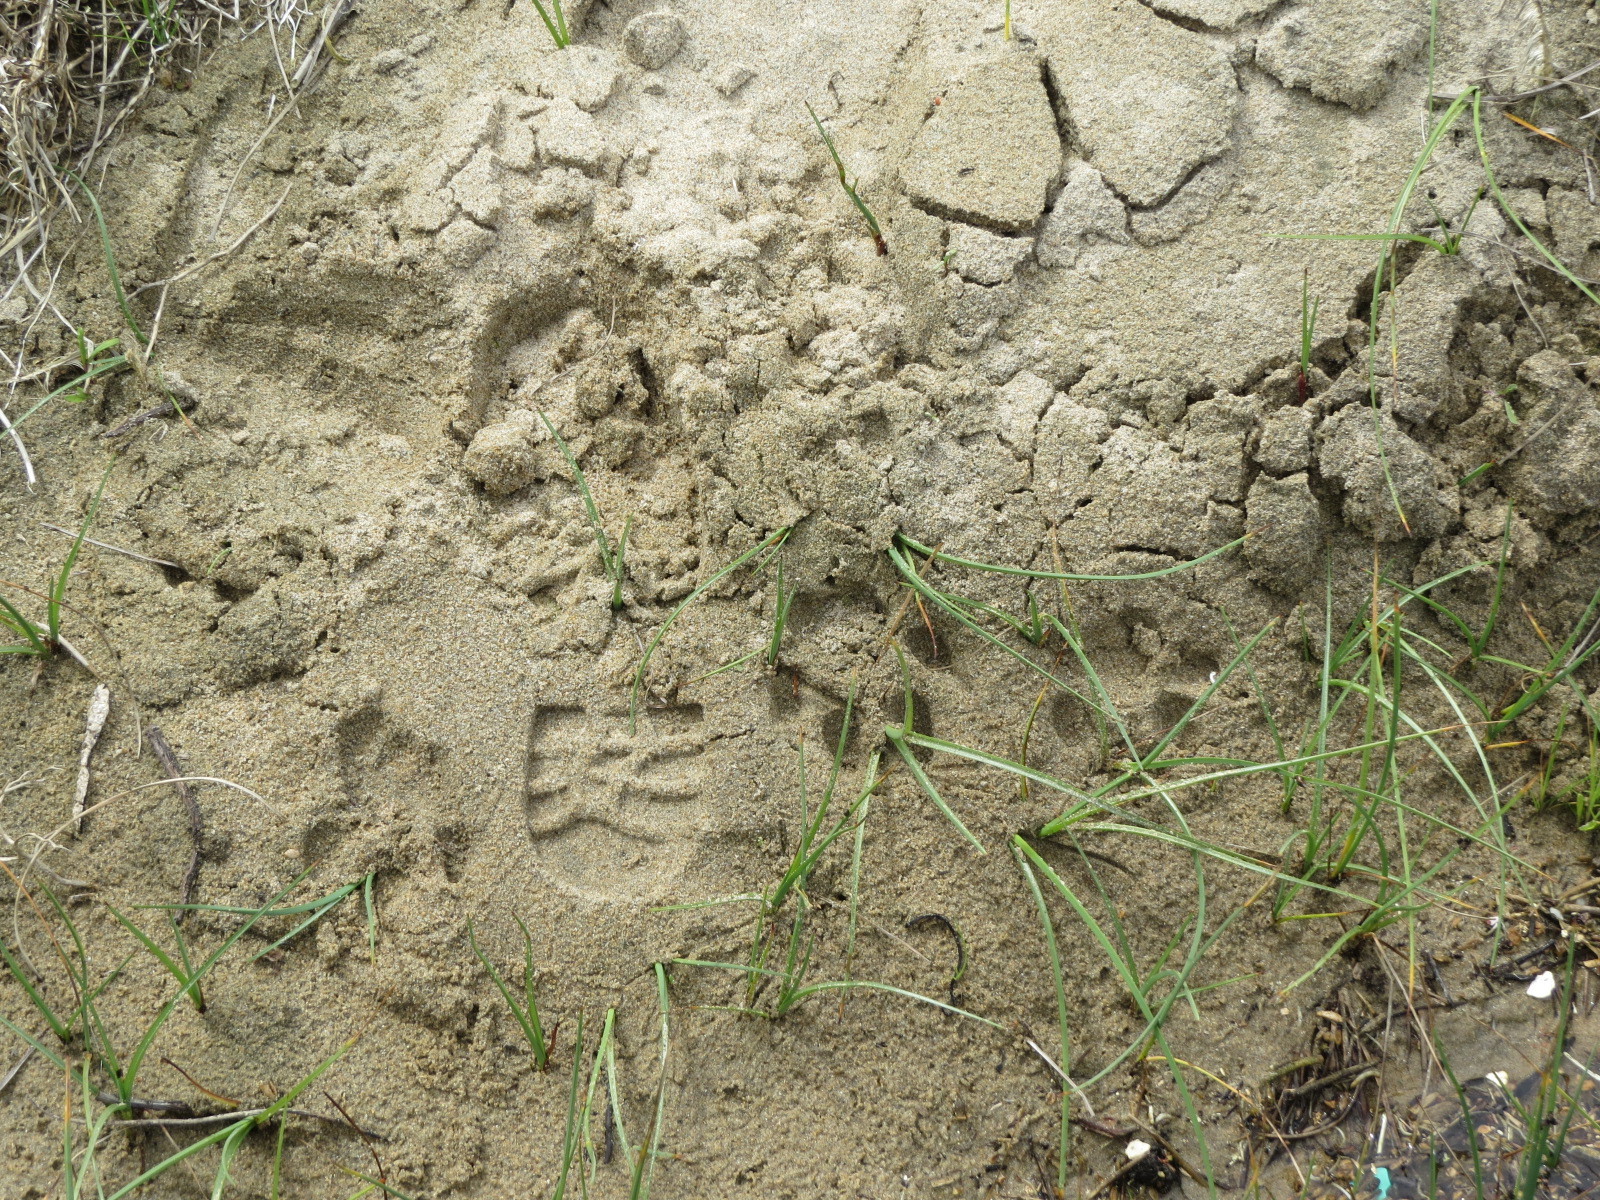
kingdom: Animalia
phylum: Chordata
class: Mammalia
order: Carnivora
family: Felidae
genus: Puma
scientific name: Puma concolor
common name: Puma
